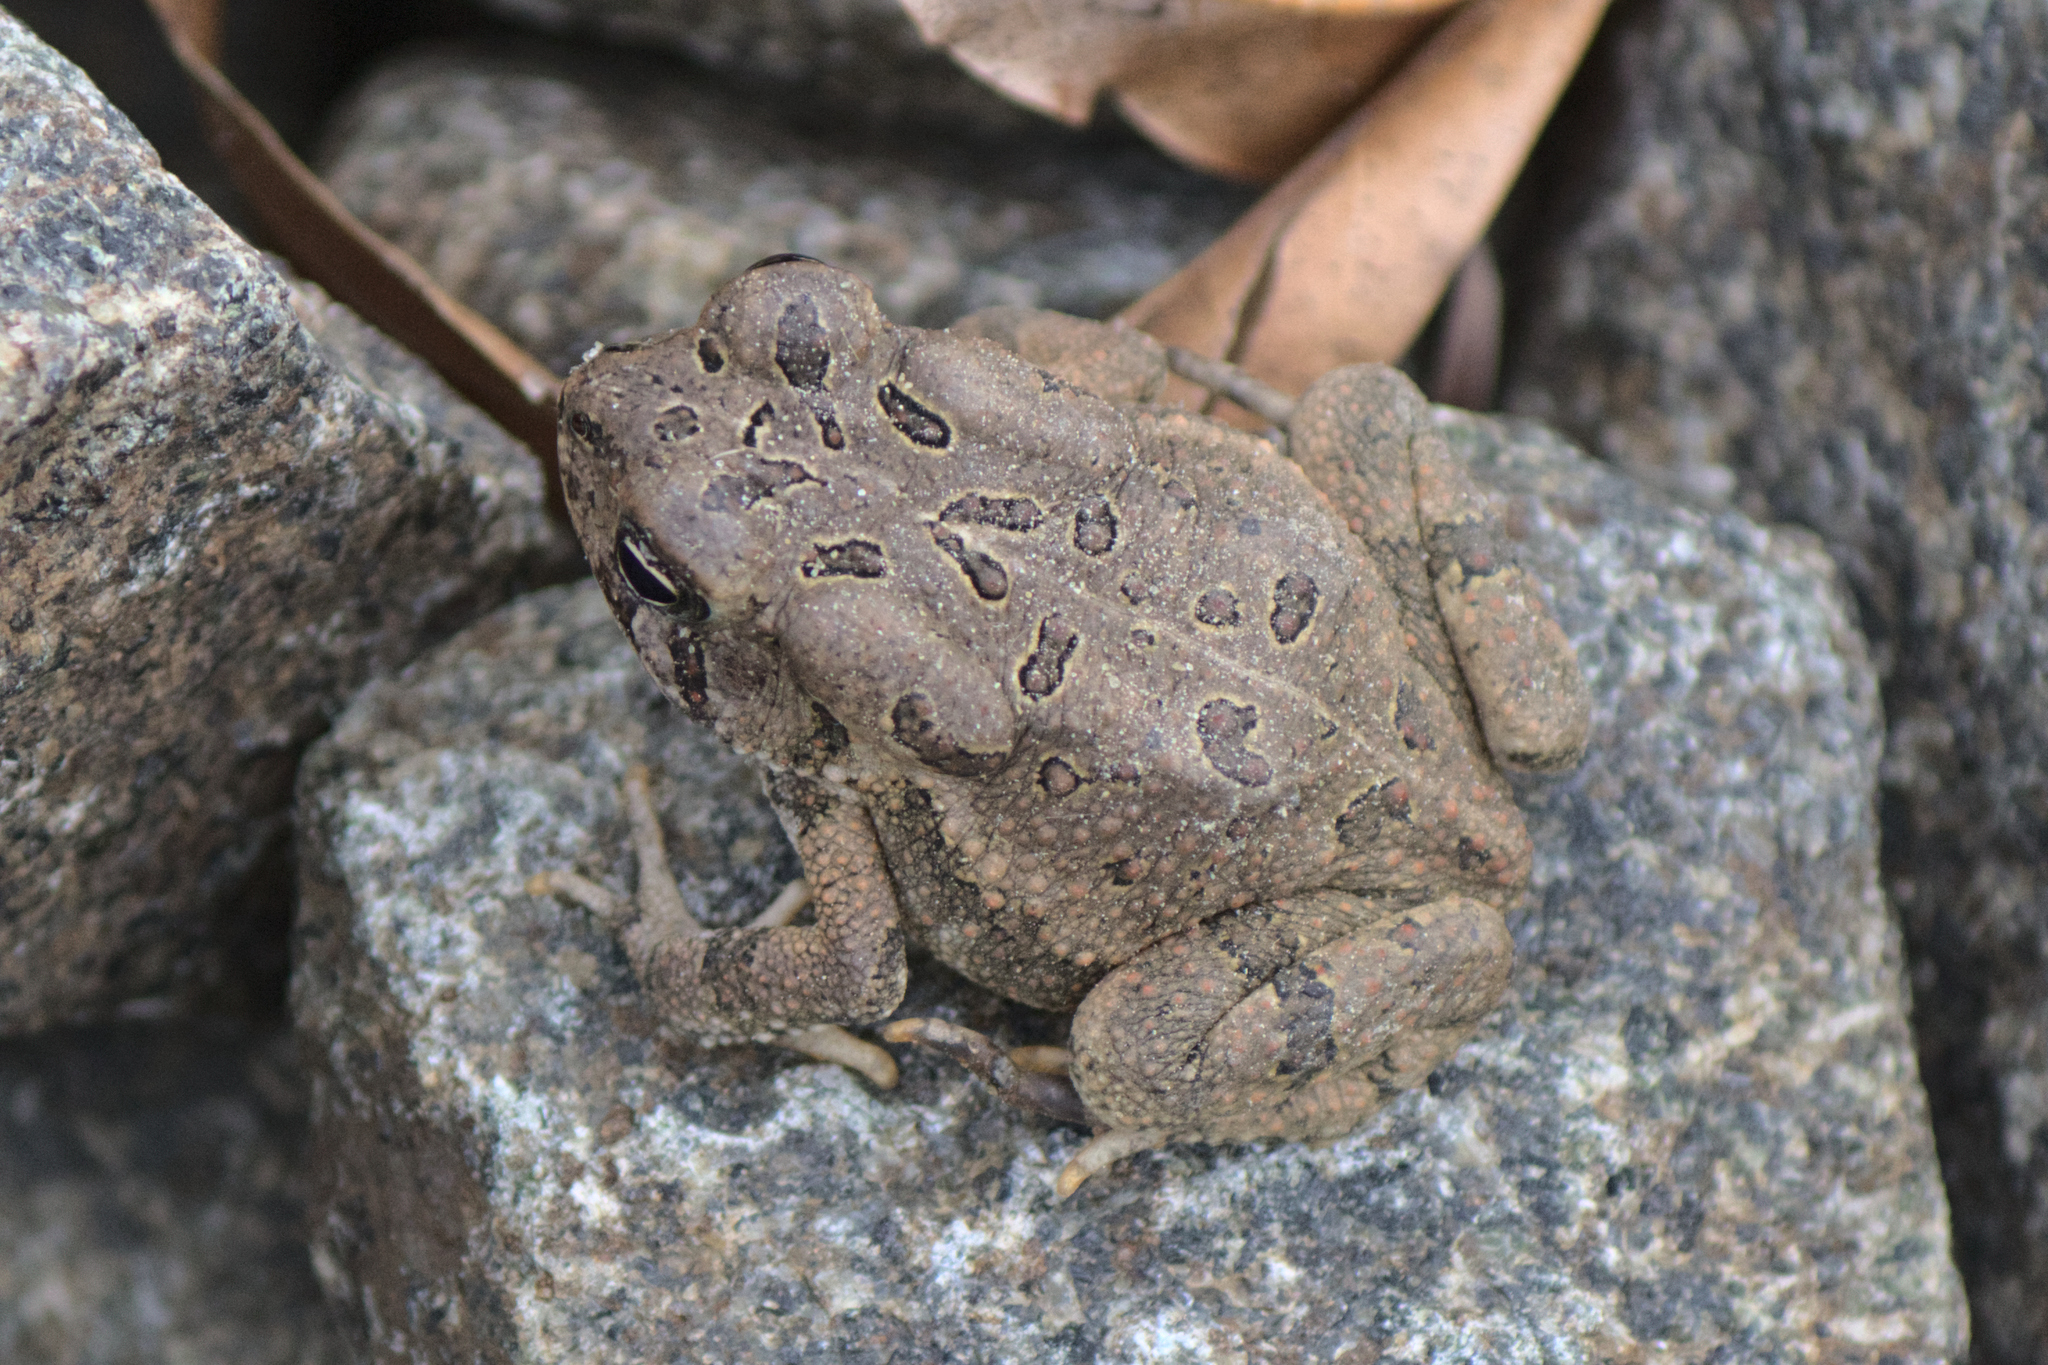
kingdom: Animalia
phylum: Chordata
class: Amphibia
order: Anura
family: Bufonidae
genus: Anaxyrus
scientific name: Anaxyrus fowleri
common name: Fowler's toad
